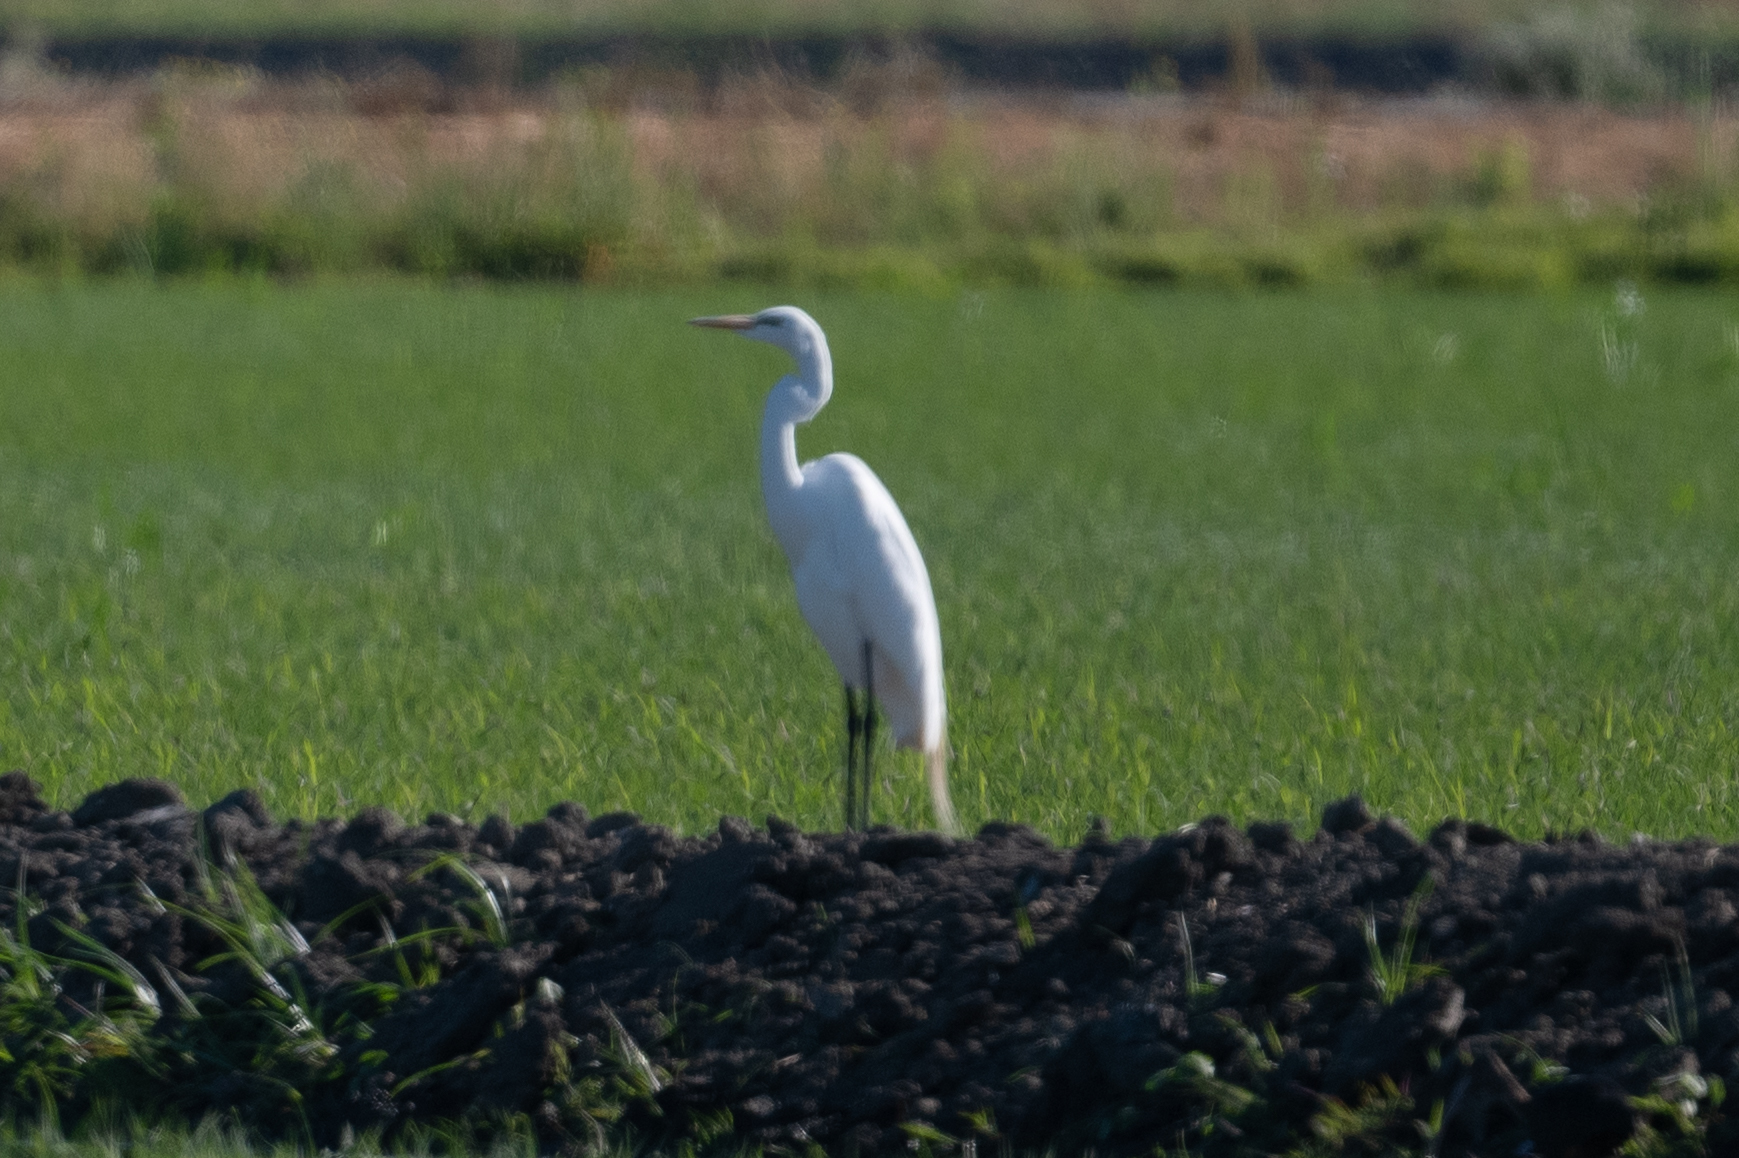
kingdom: Animalia
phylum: Chordata
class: Aves
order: Pelecaniformes
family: Ardeidae
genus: Ardea
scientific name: Ardea alba
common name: Great egret
